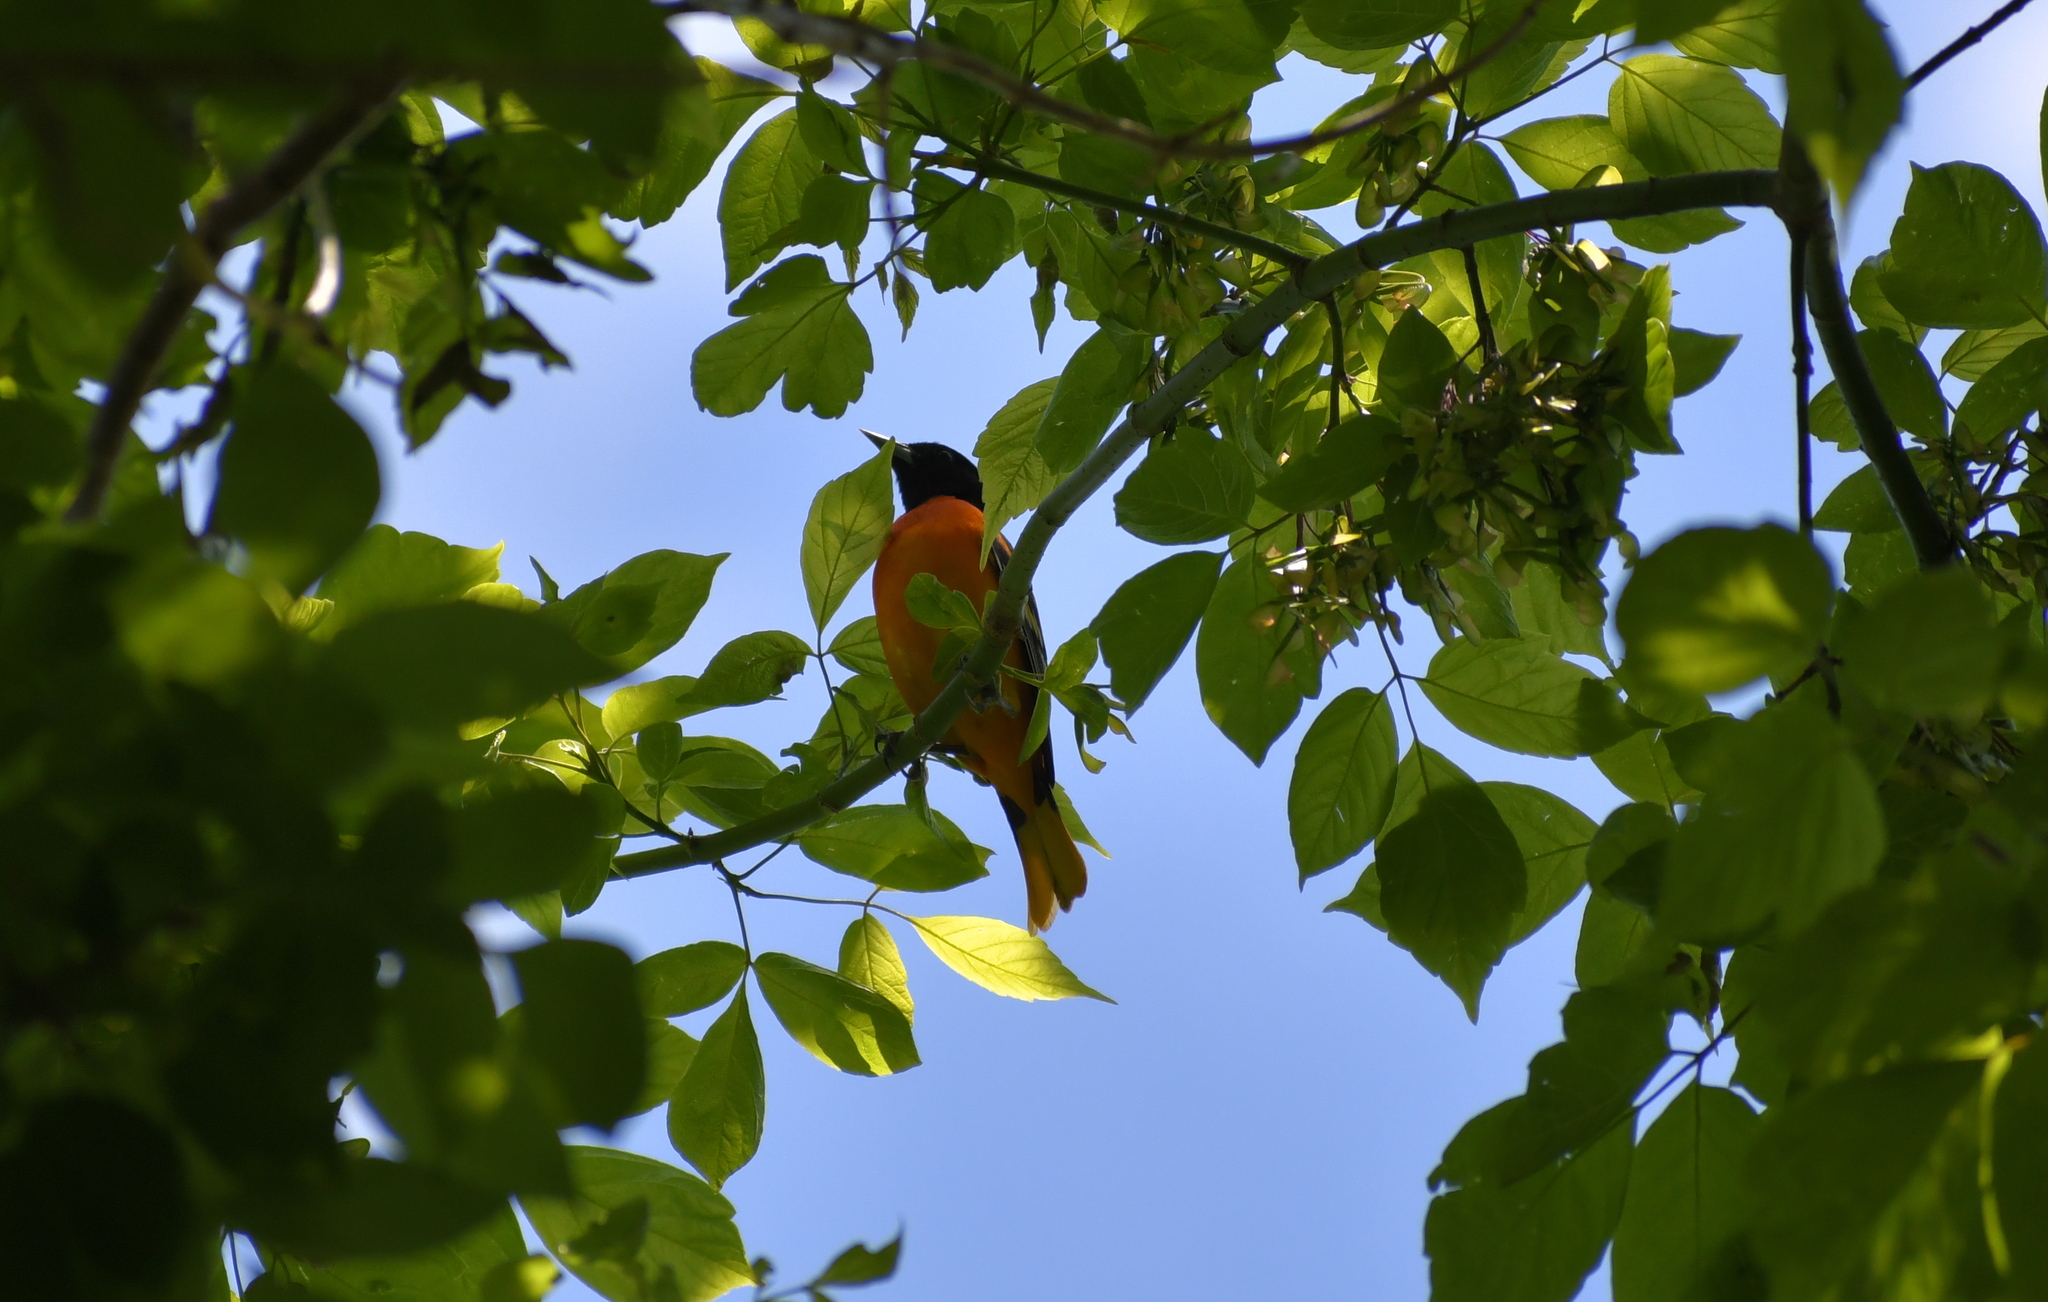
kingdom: Animalia
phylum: Chordata
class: Aves
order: Passeriformes
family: Icteridae
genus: Icterus
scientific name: Icterus galbula
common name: Baltimore oriole
